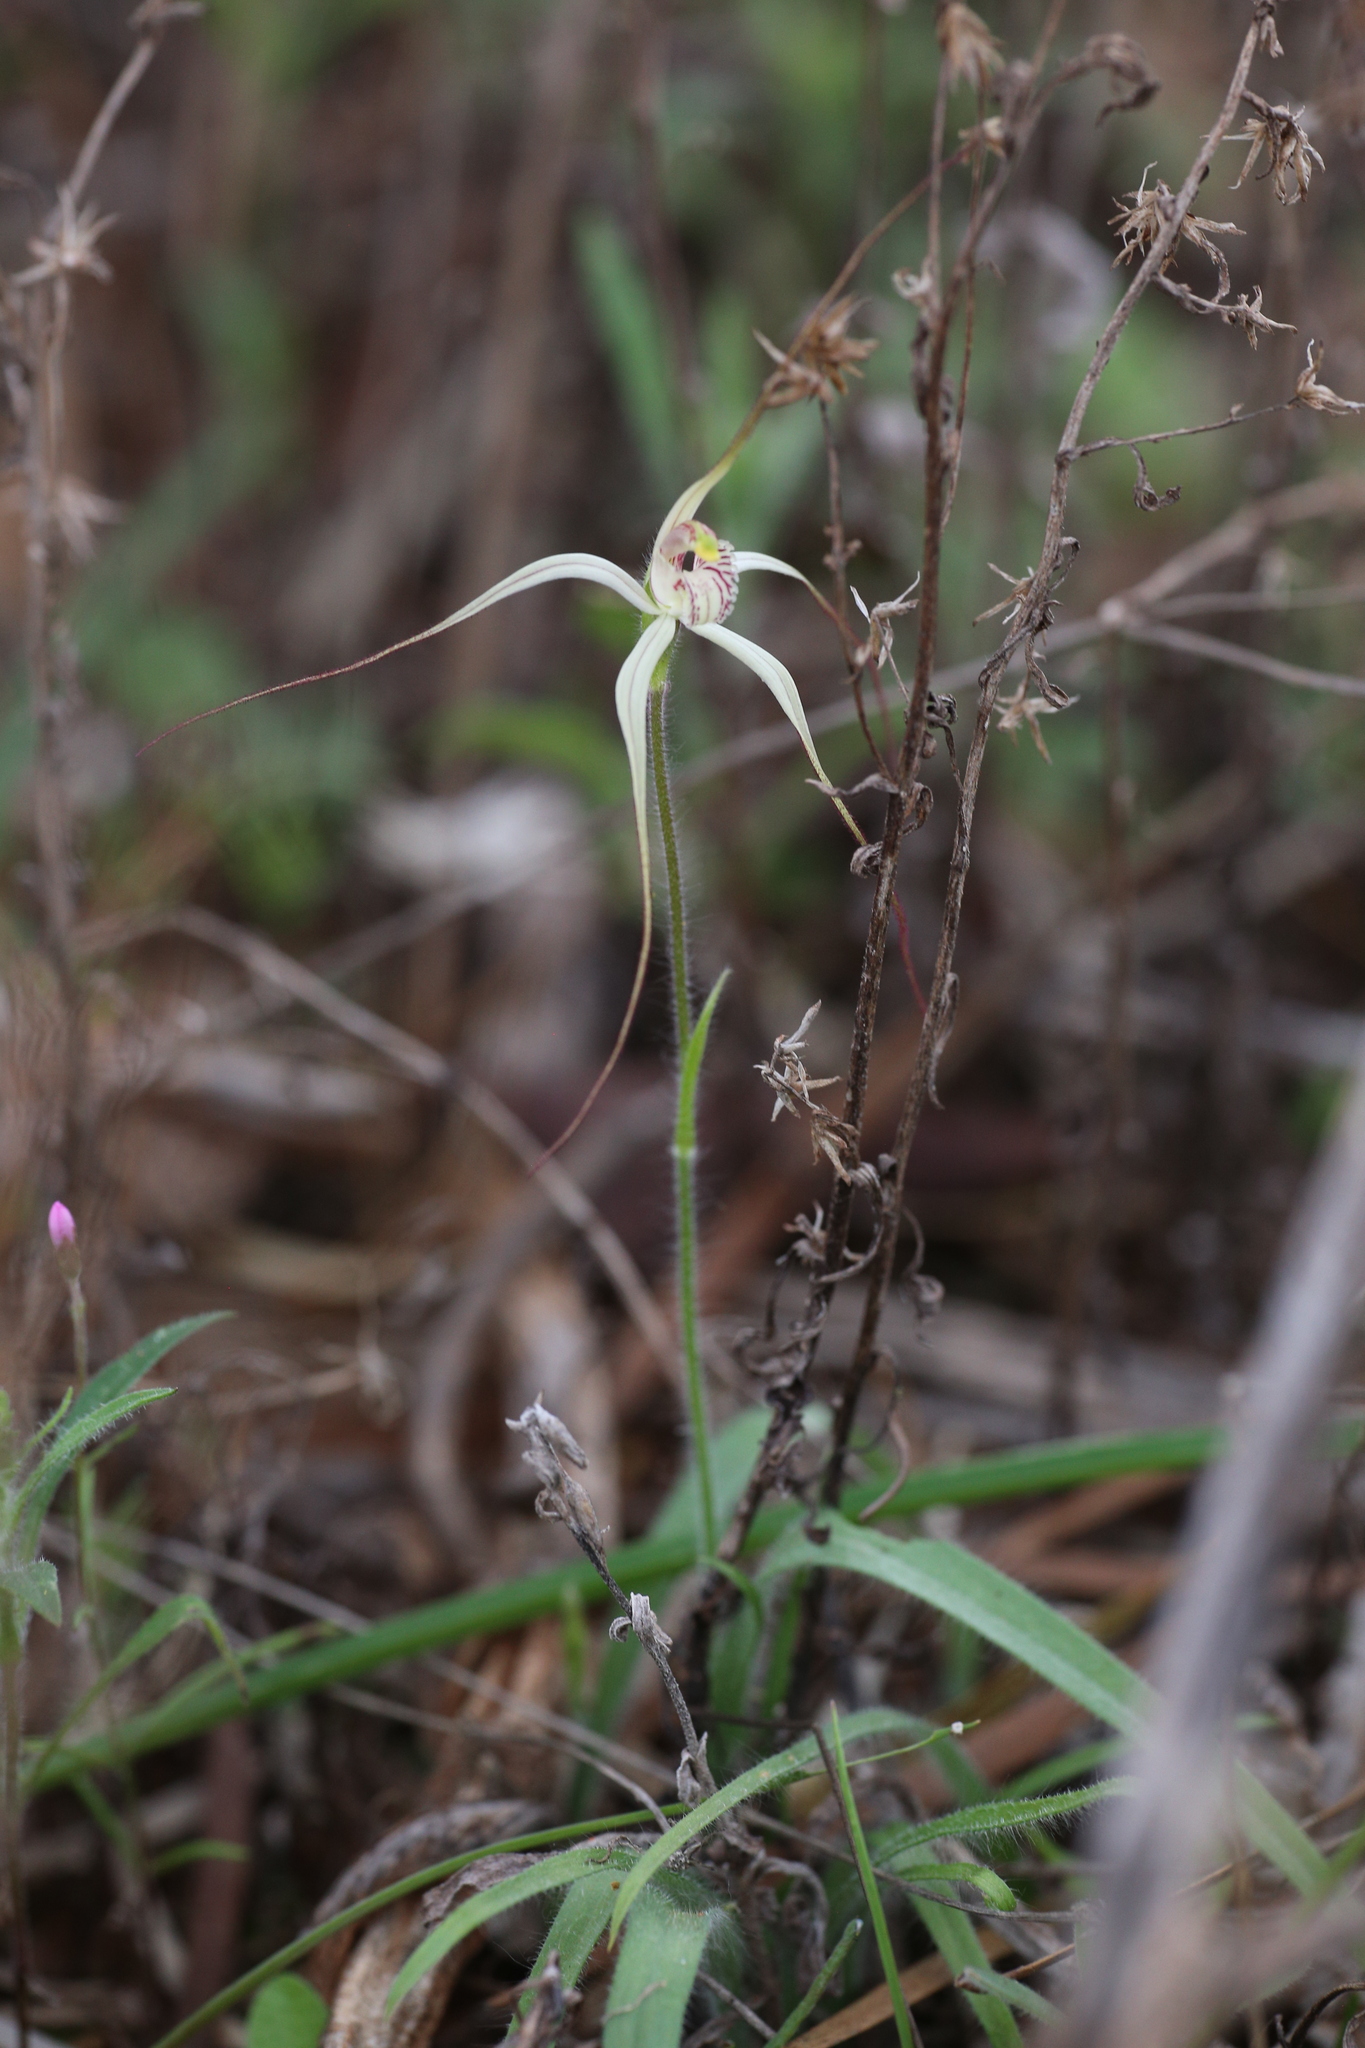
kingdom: Plantae
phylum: Tracheophyta
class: Liliopsida
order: Asparagales
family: Orchidaceae
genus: Caladenia
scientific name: Caladenia petrensis
